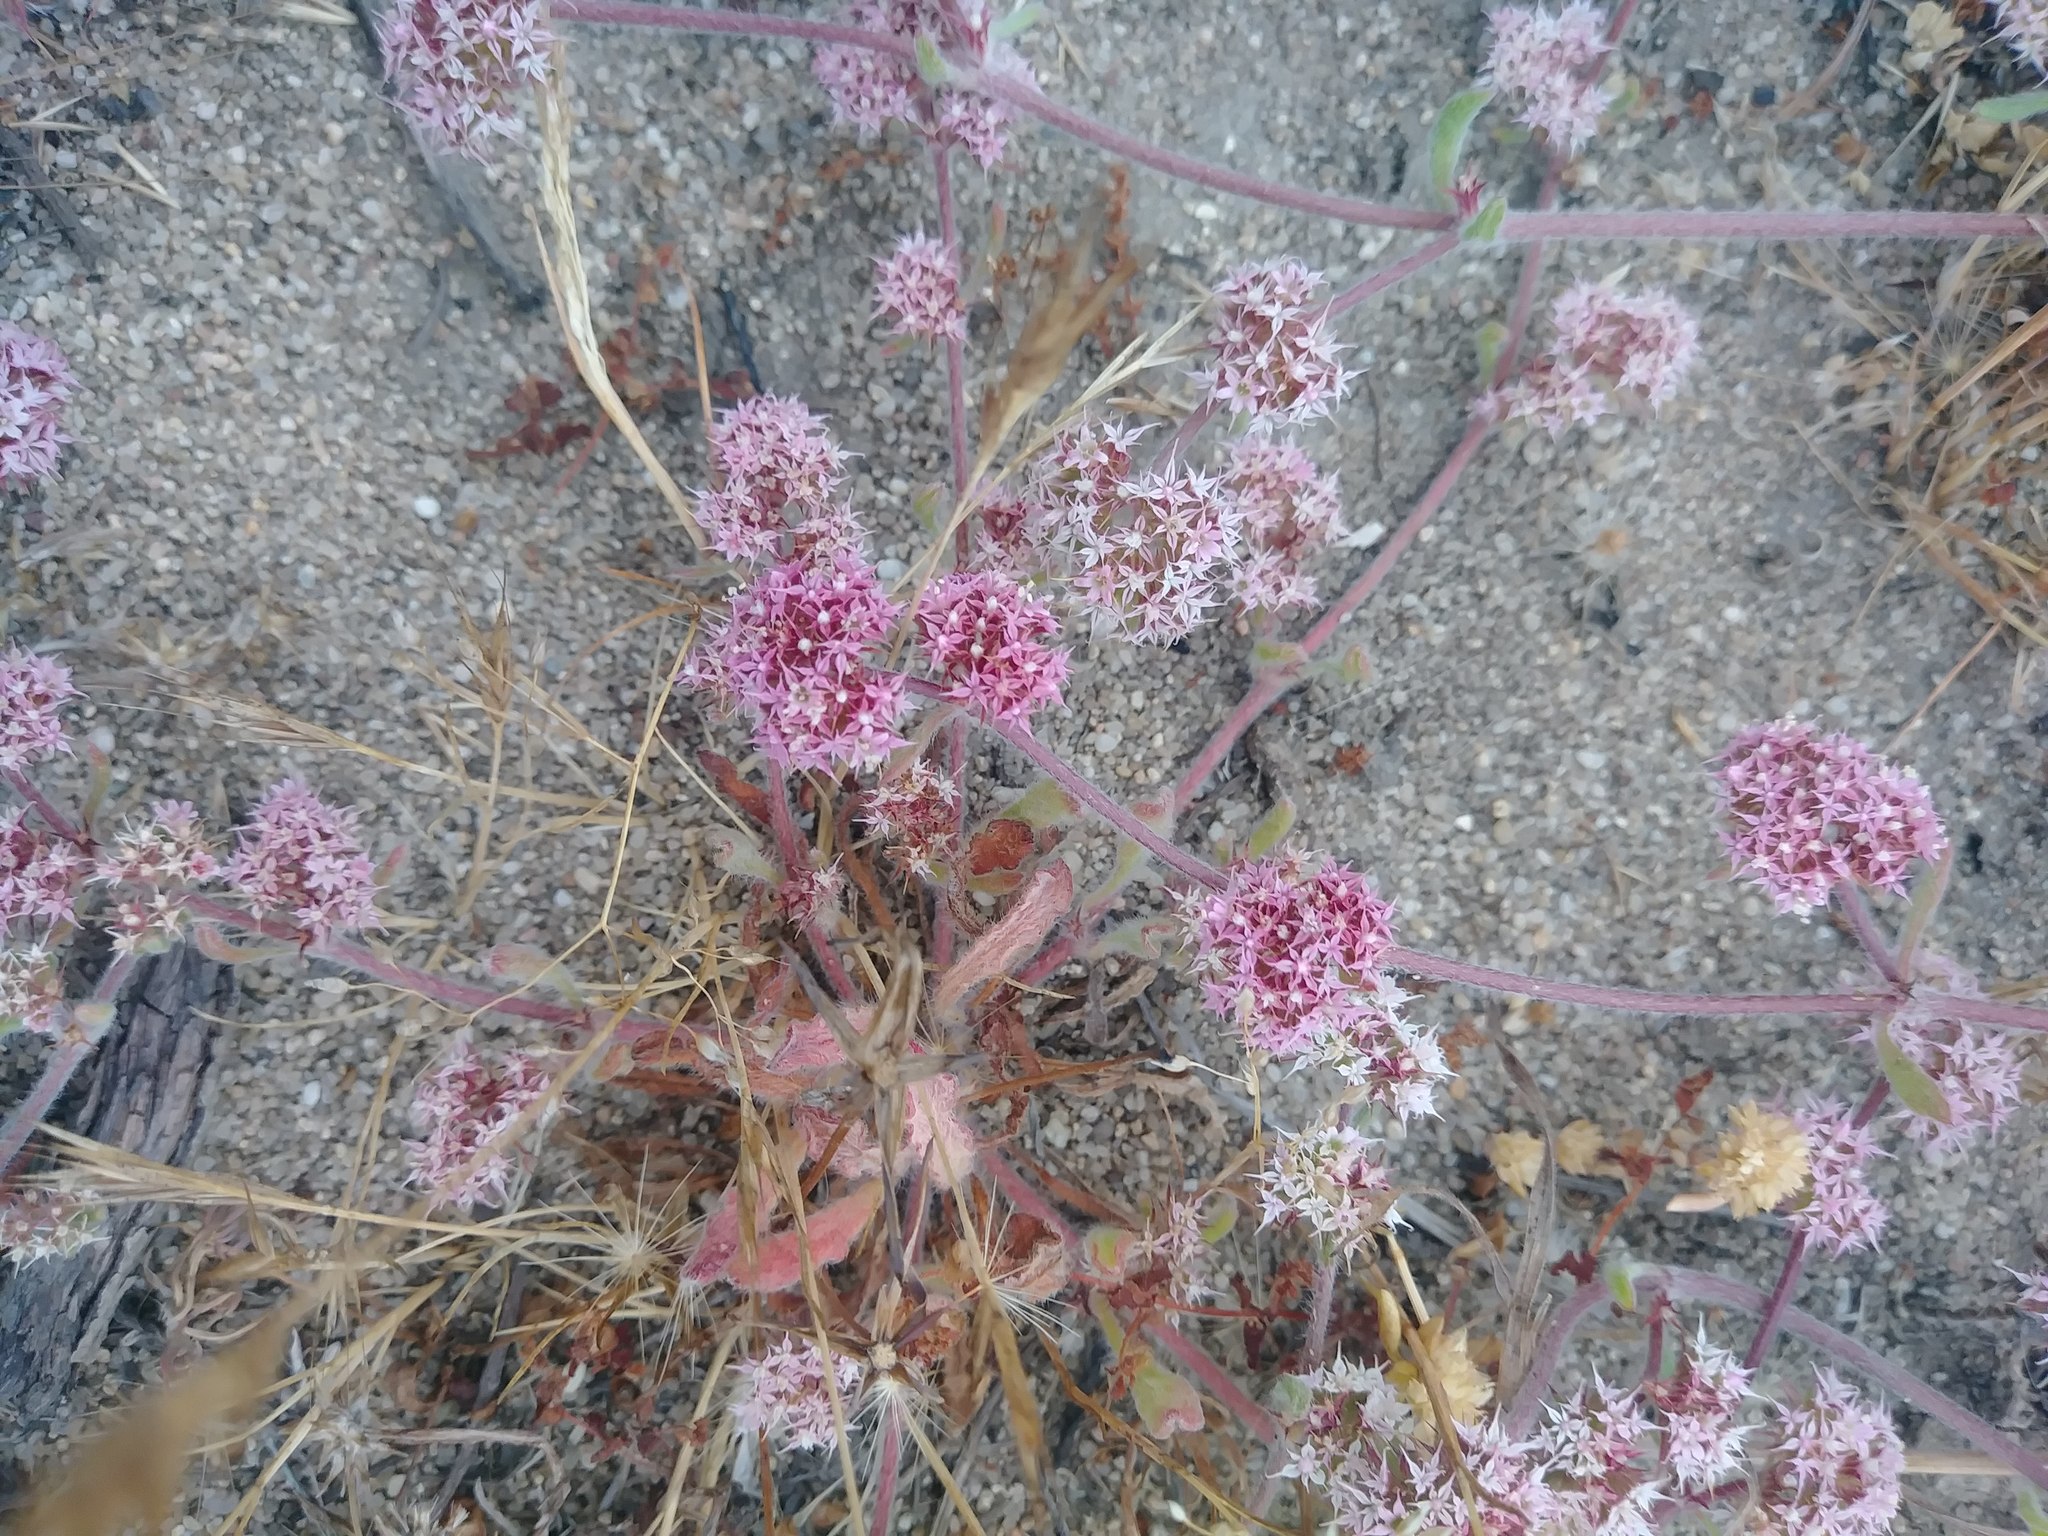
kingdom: Plantae
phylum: Tracheophyta
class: Magnoliopsida
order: Caryophyllales
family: Polygonaceae
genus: Chorizanthe
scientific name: Chorizanthe pungens
